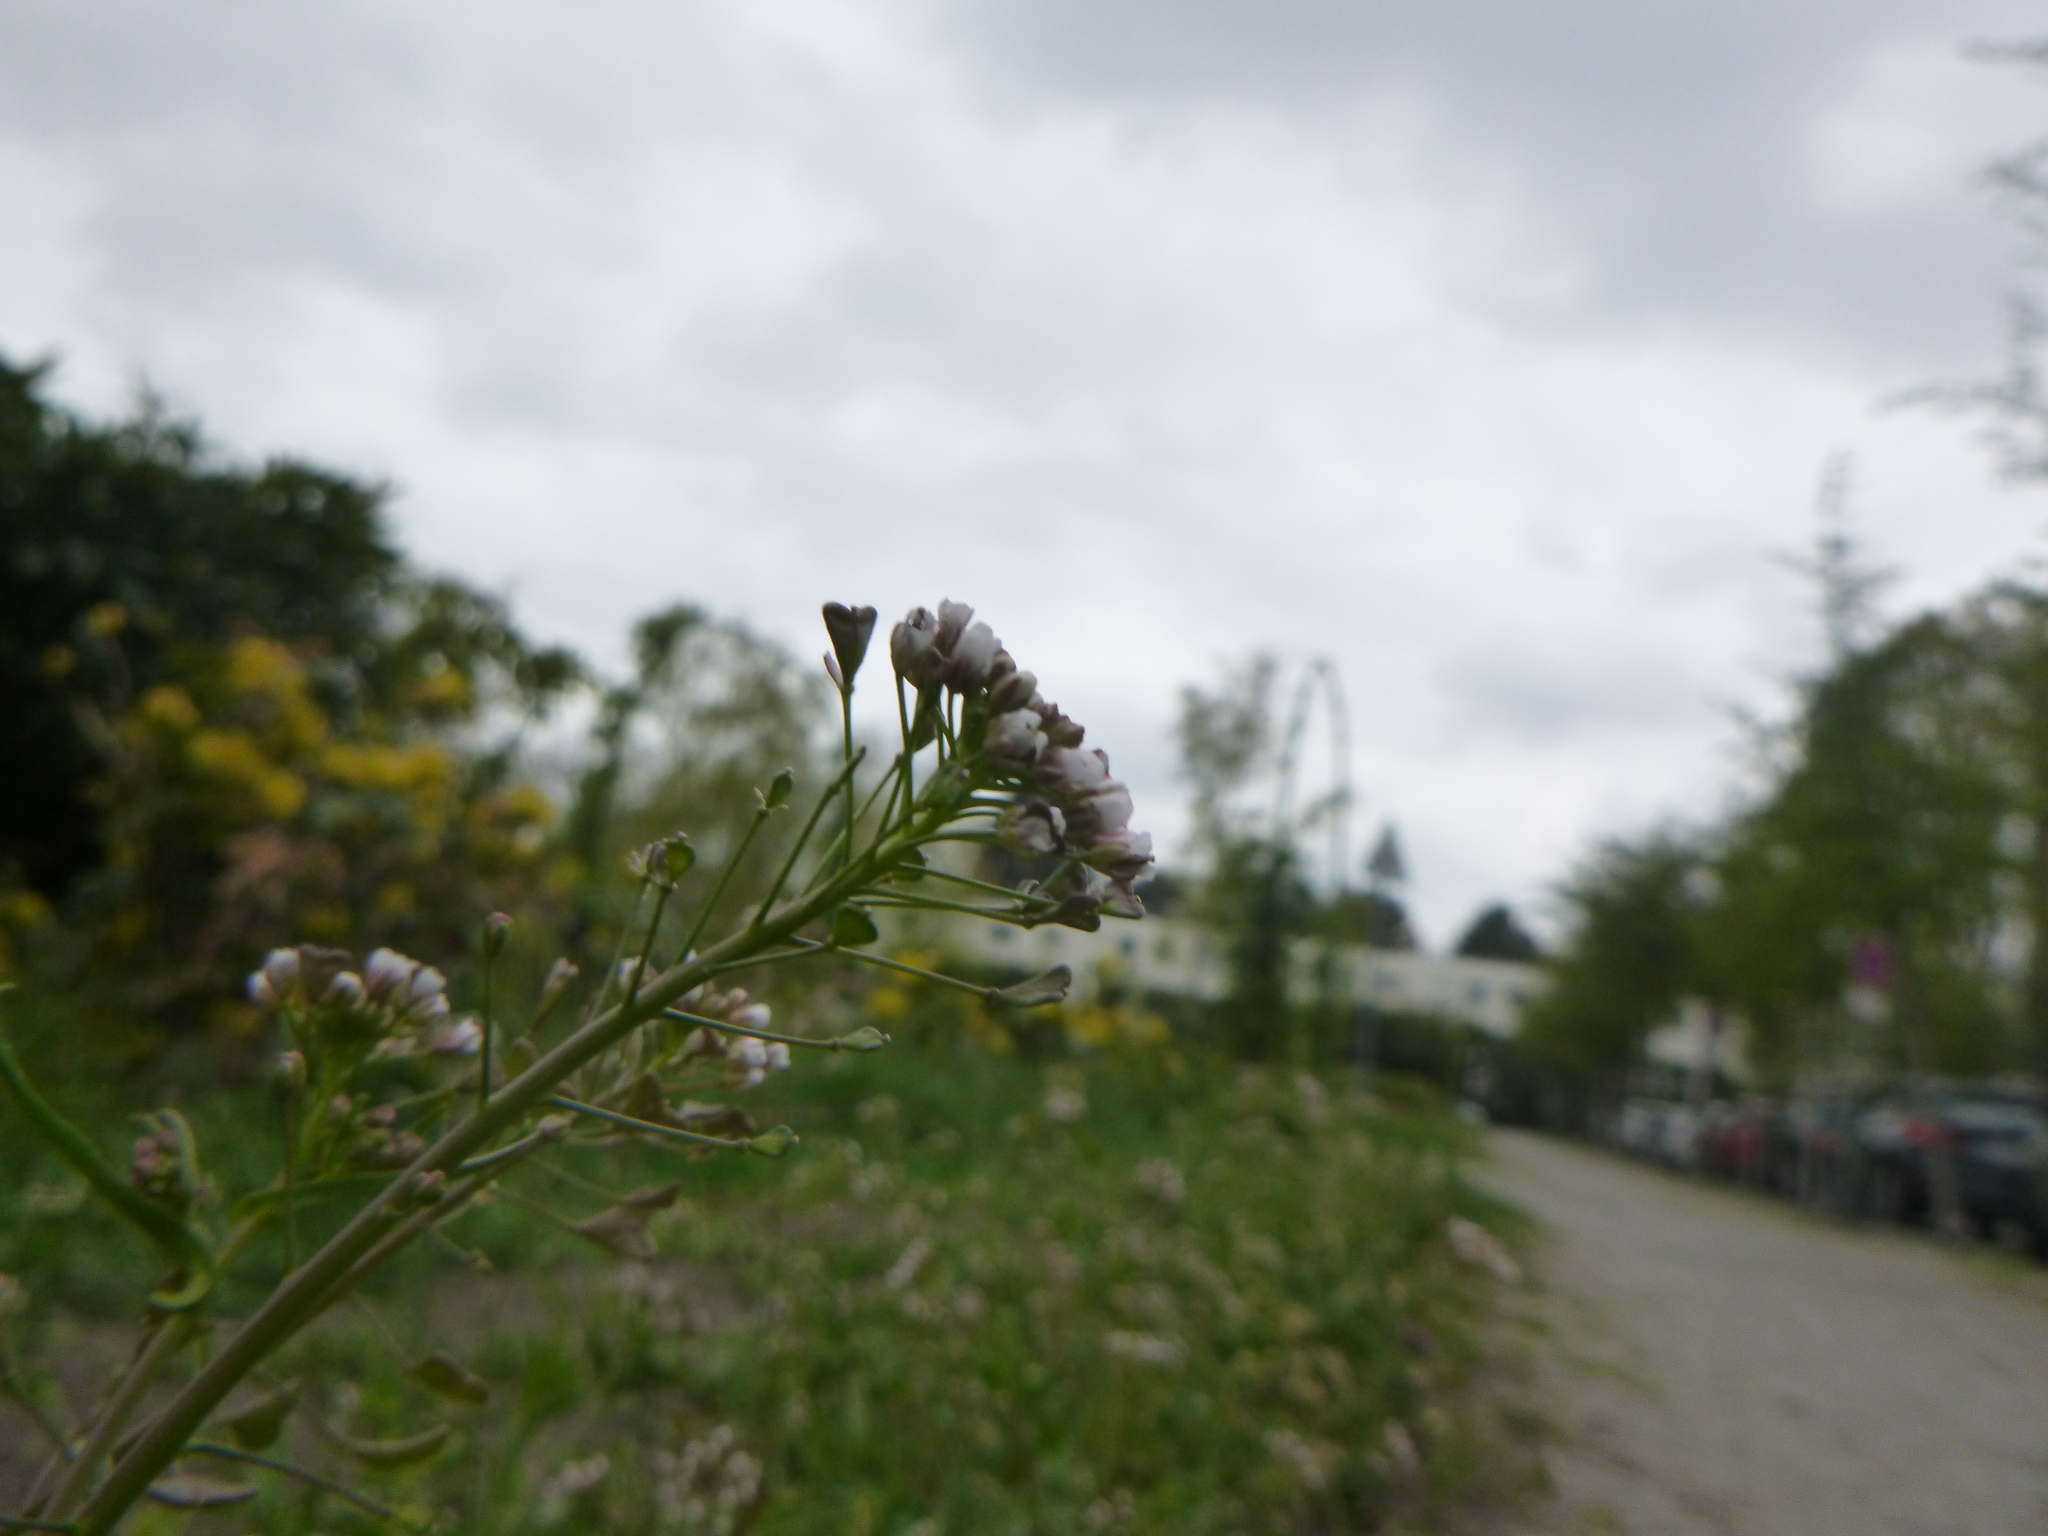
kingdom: Plantae
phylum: Tracheophyta
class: Magnoliopsida
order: Brassicales
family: Brassicaceae
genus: Capsella
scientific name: Capsella bursa-pastoris
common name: Shepherd's purse
